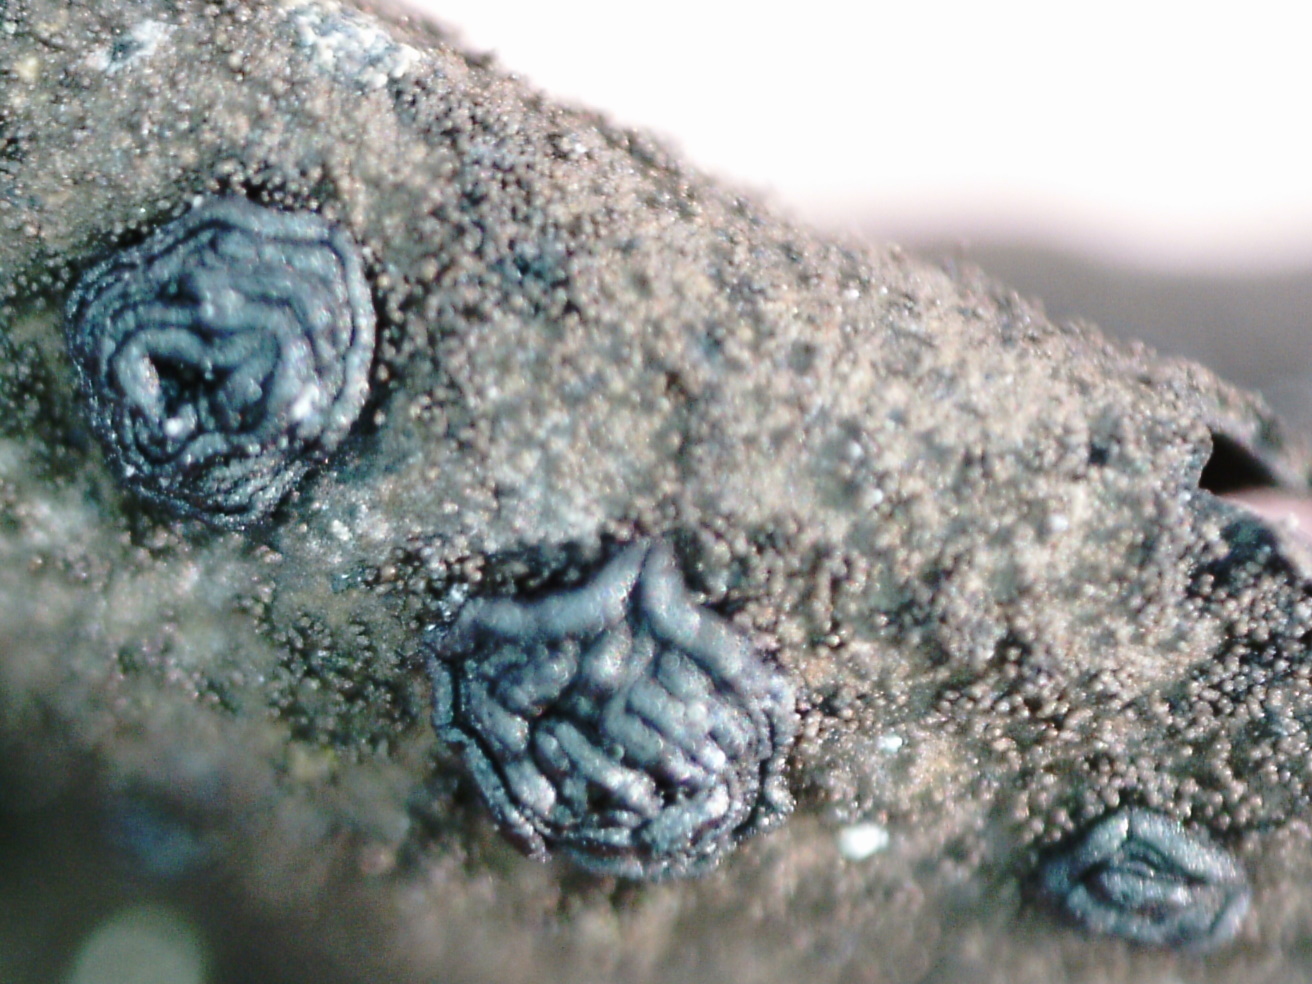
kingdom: Fungi
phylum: Ascomycota
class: Lecanoromycetes
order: Umbilicariales
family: Umbilicariaceae
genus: Umbilicaria
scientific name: Umbilicaria deusta
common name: Peppered rock tripe
